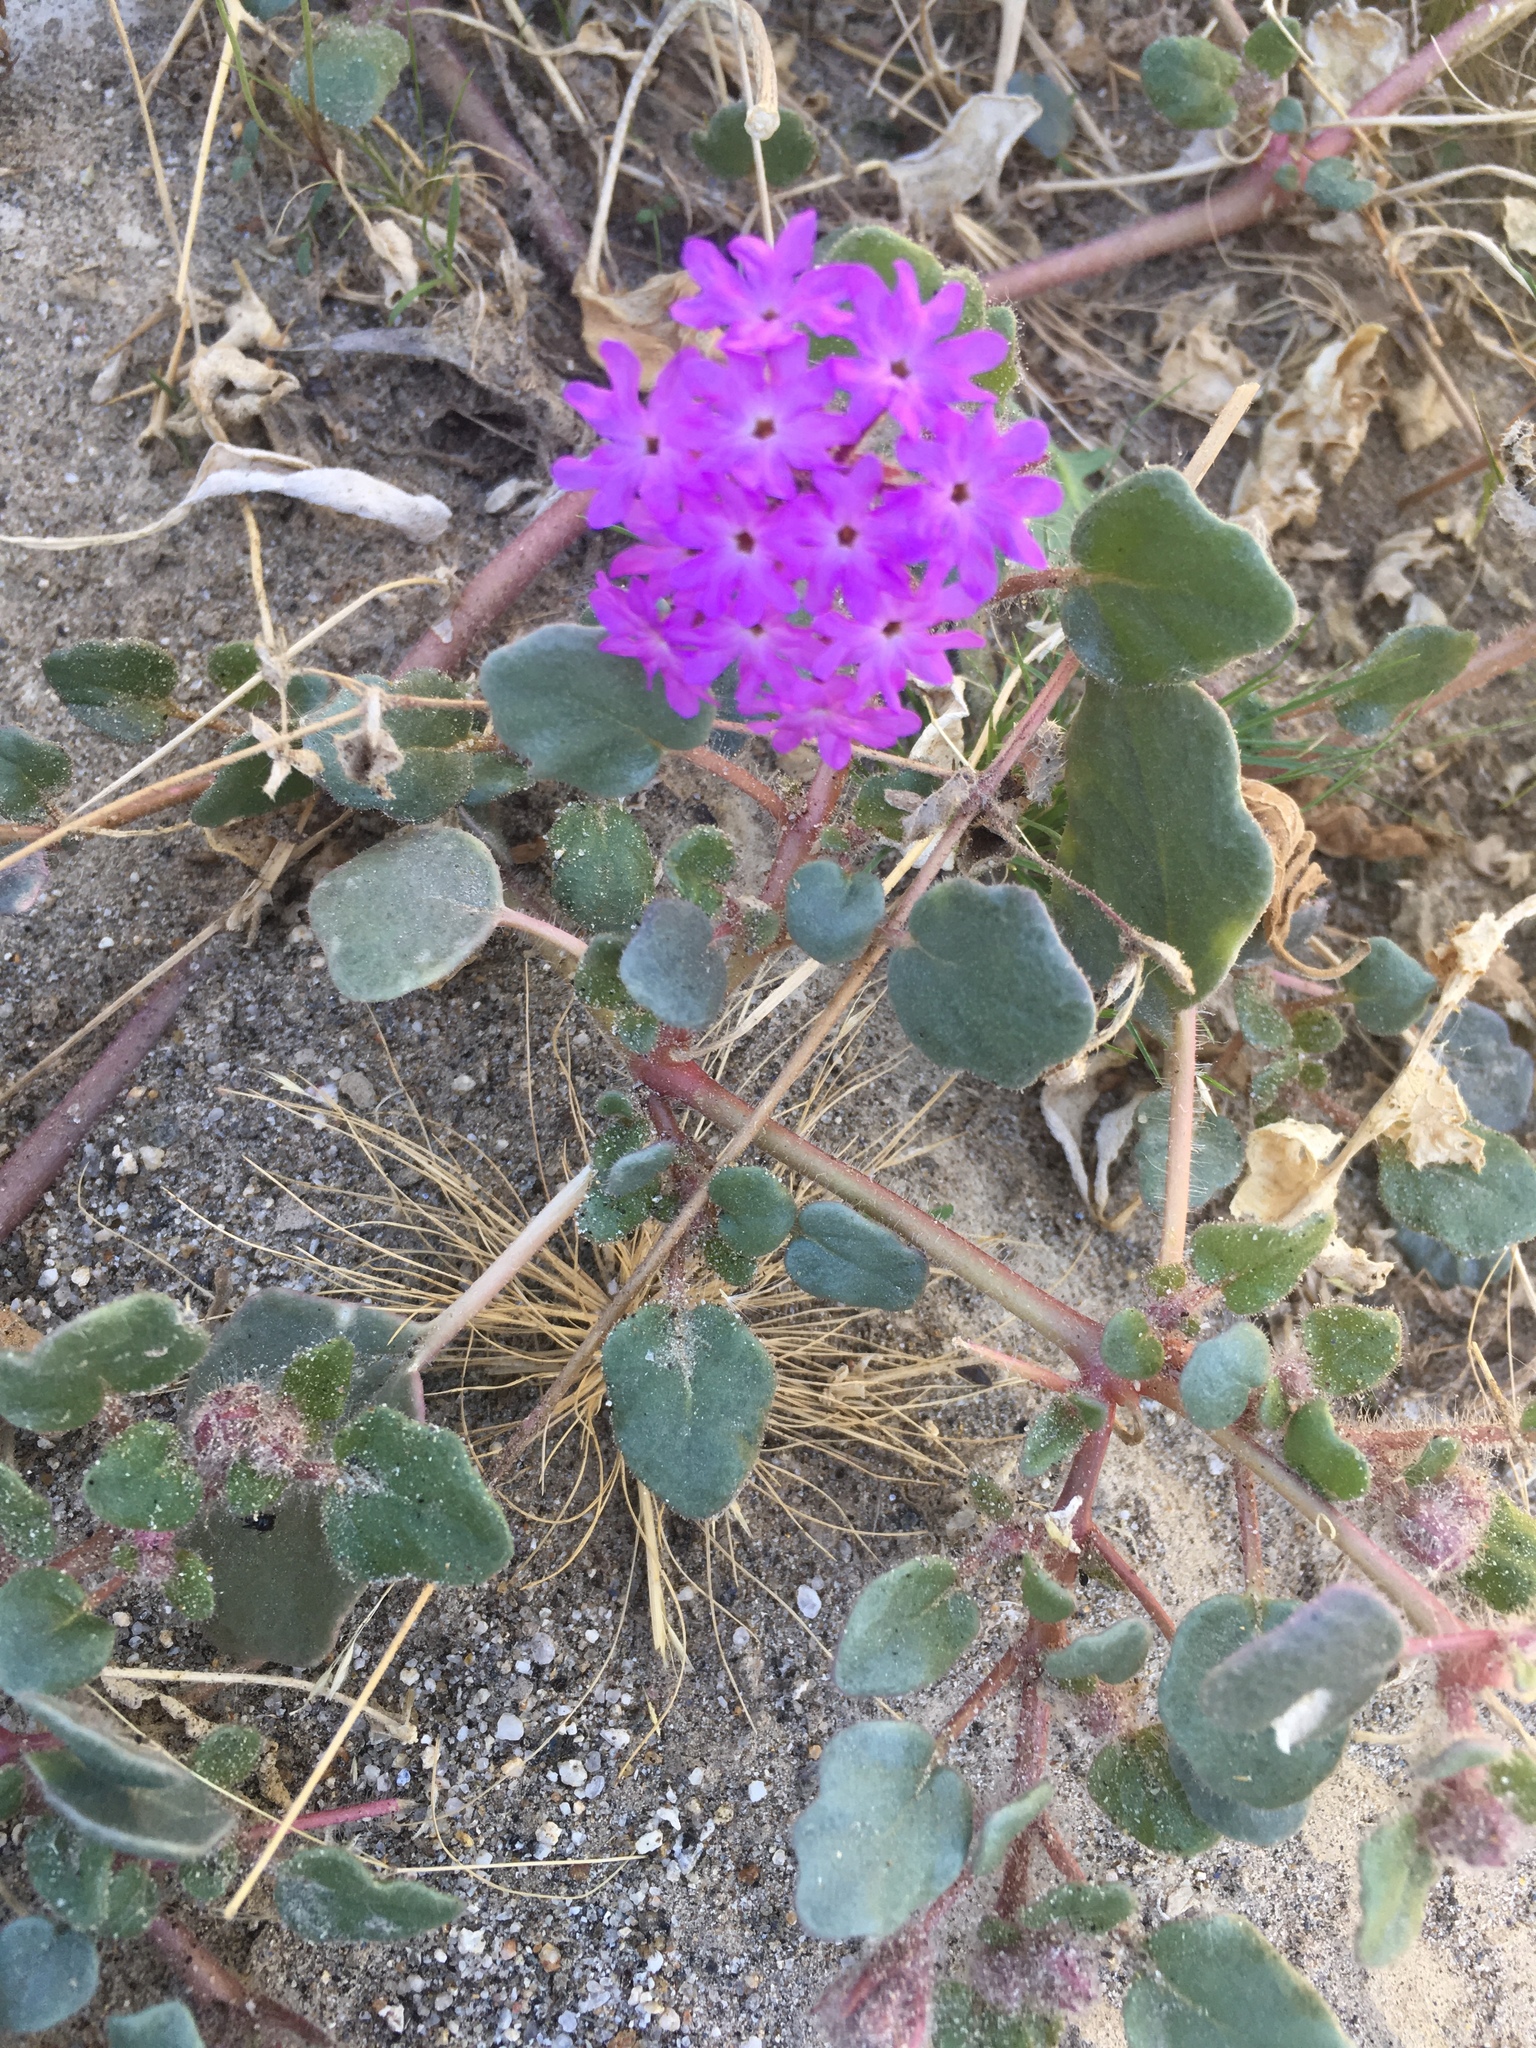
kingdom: Plantae
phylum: Tracheophyta
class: Magnoliopsida
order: Caryophyllales
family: Nyctaginaceae
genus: Abronia
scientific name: Abronia villosa
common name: Desert sand-verbena
